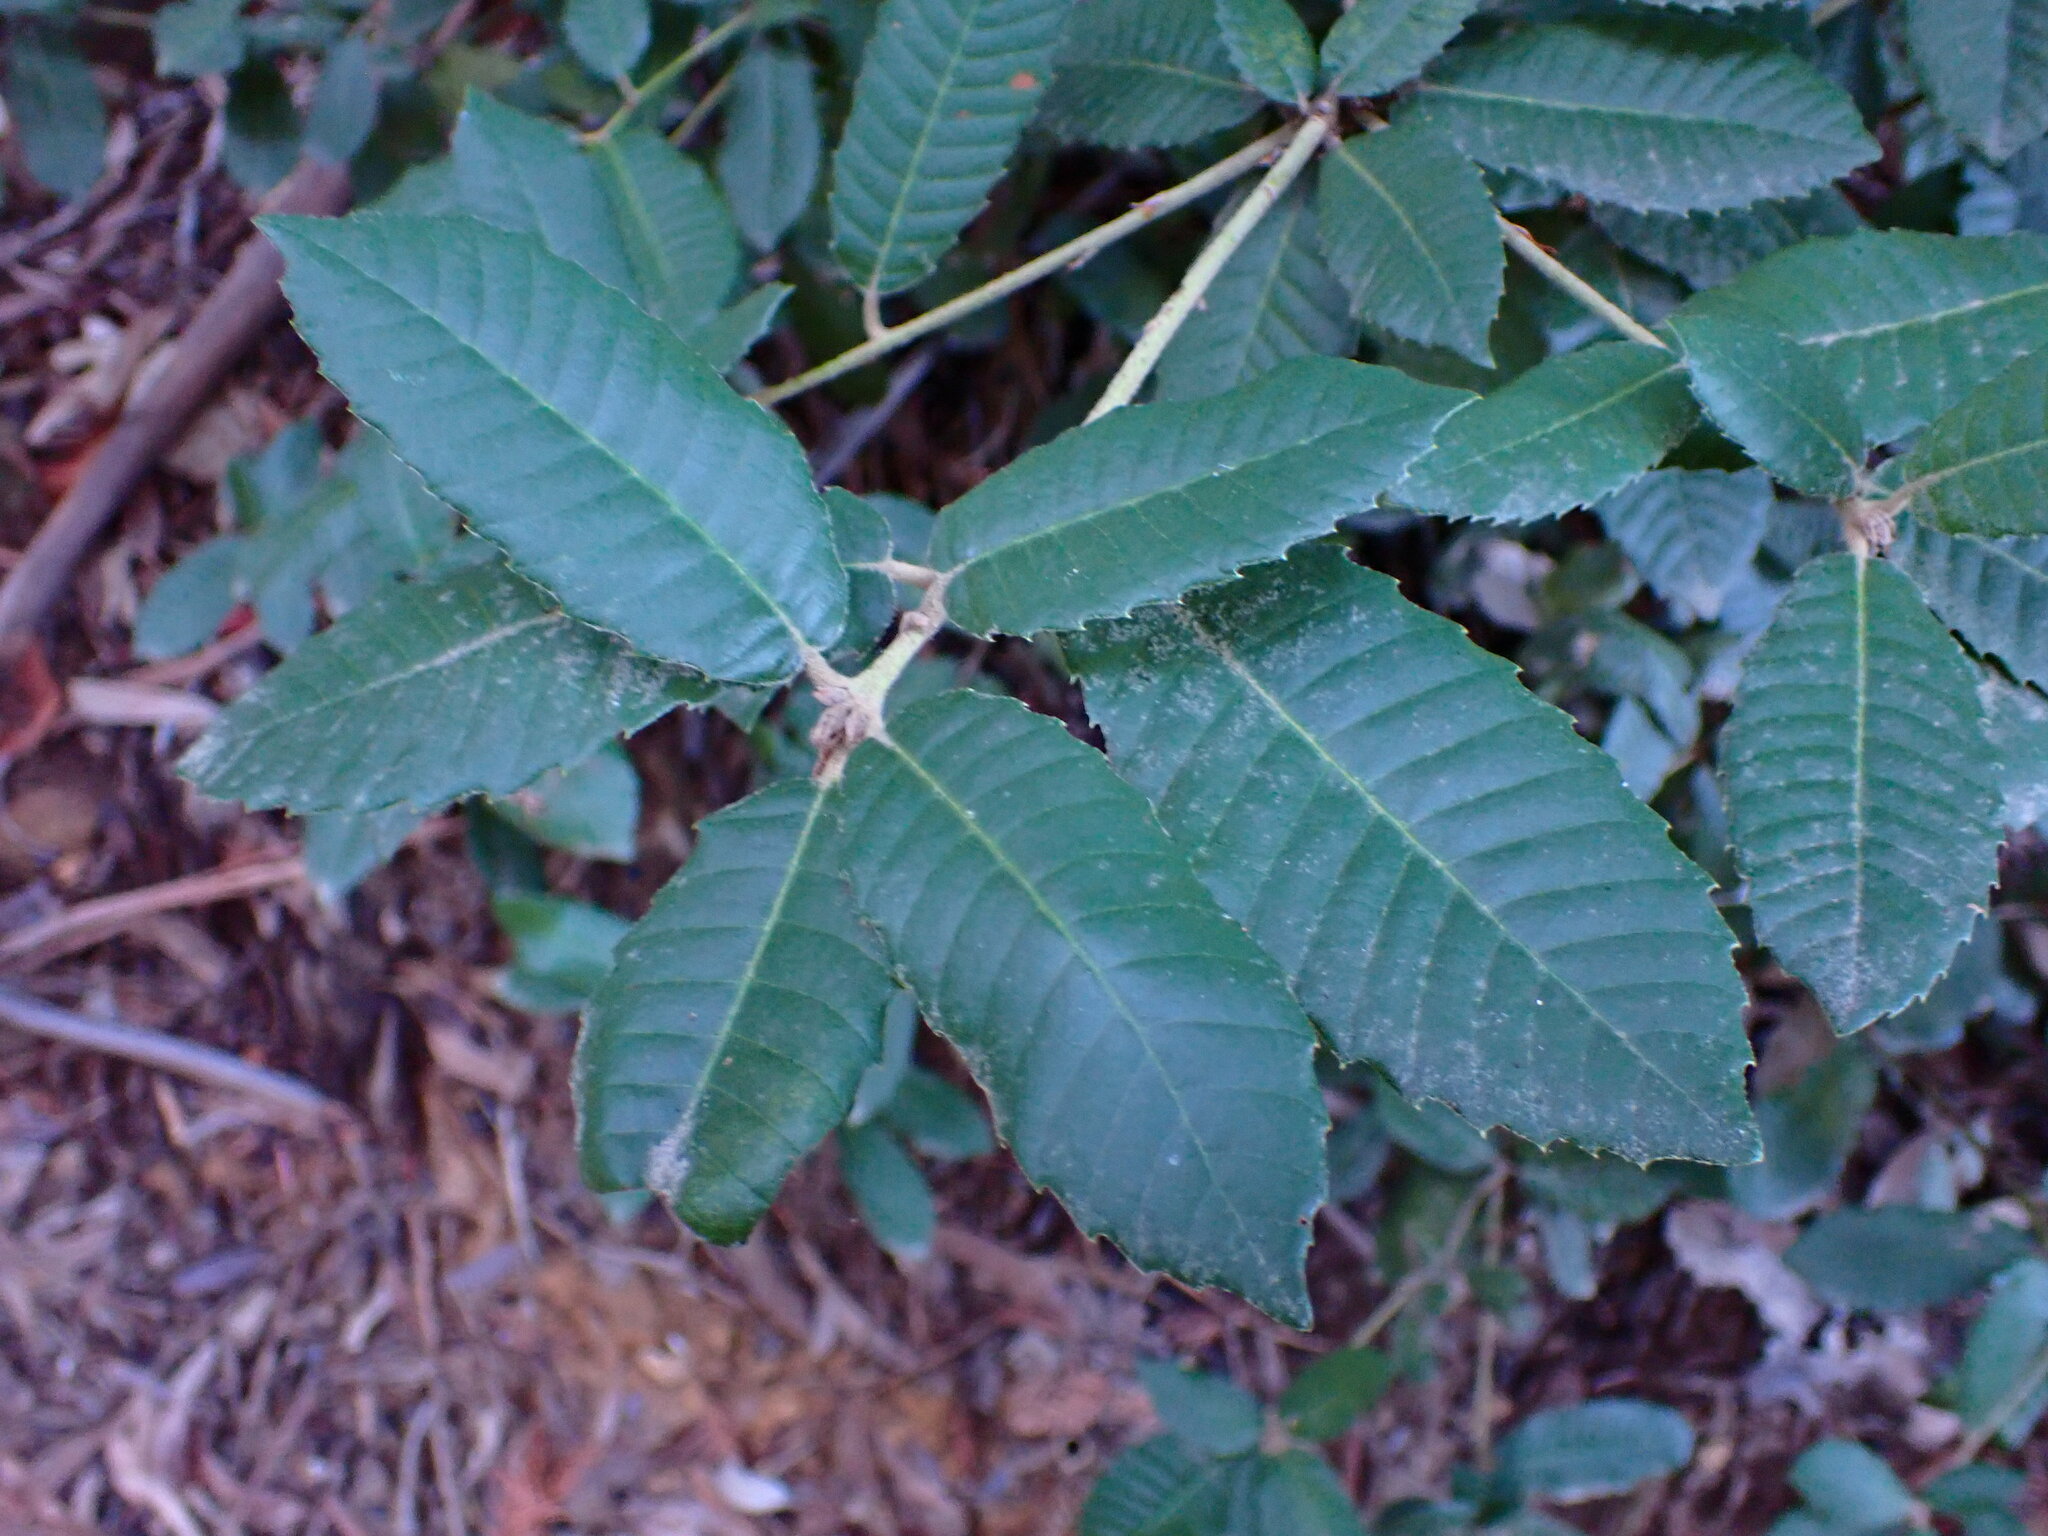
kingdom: Plantae
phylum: Tracheophyta
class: Magnoliopsida
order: Fagales
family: Fagaceae
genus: Notholithocarpus
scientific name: Notholithocarpus densiflorus
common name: Tan bark oak
